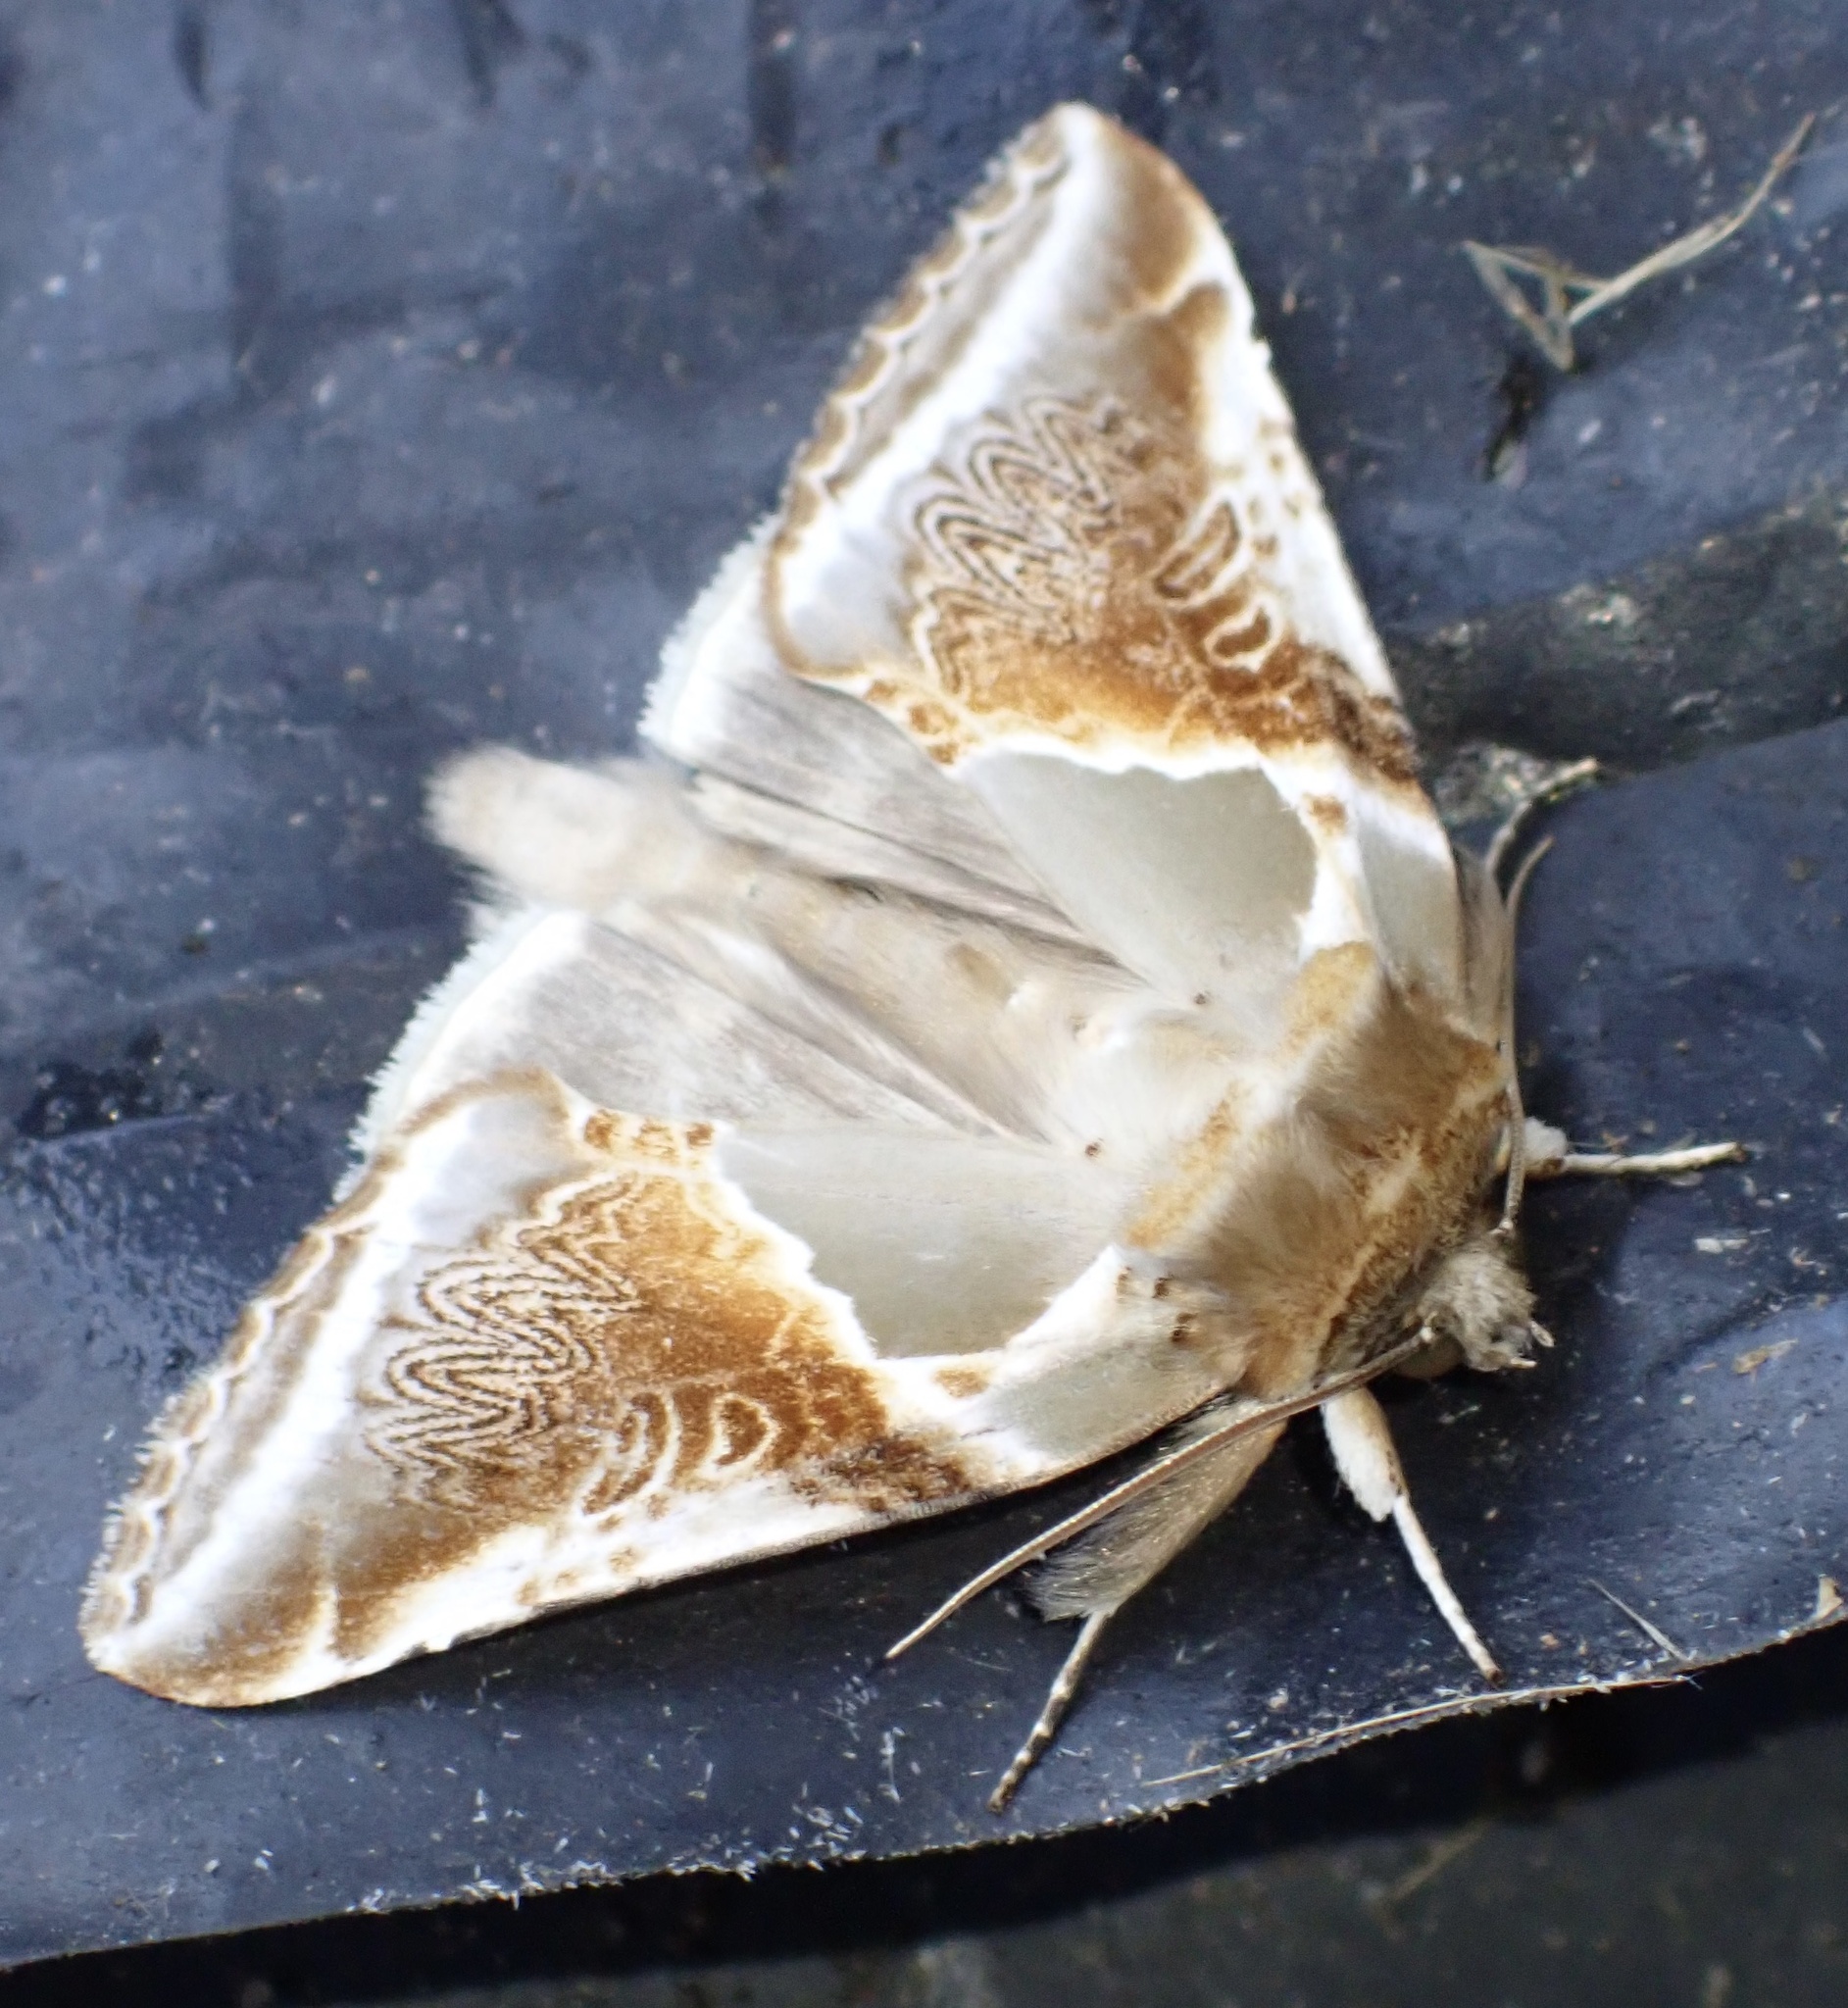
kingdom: Animalia
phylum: Arthropoda
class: Insecta
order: Lepidoptera
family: Drepanidae
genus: Habrosyne
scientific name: Habrosyne pyritoides
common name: Buff arches
